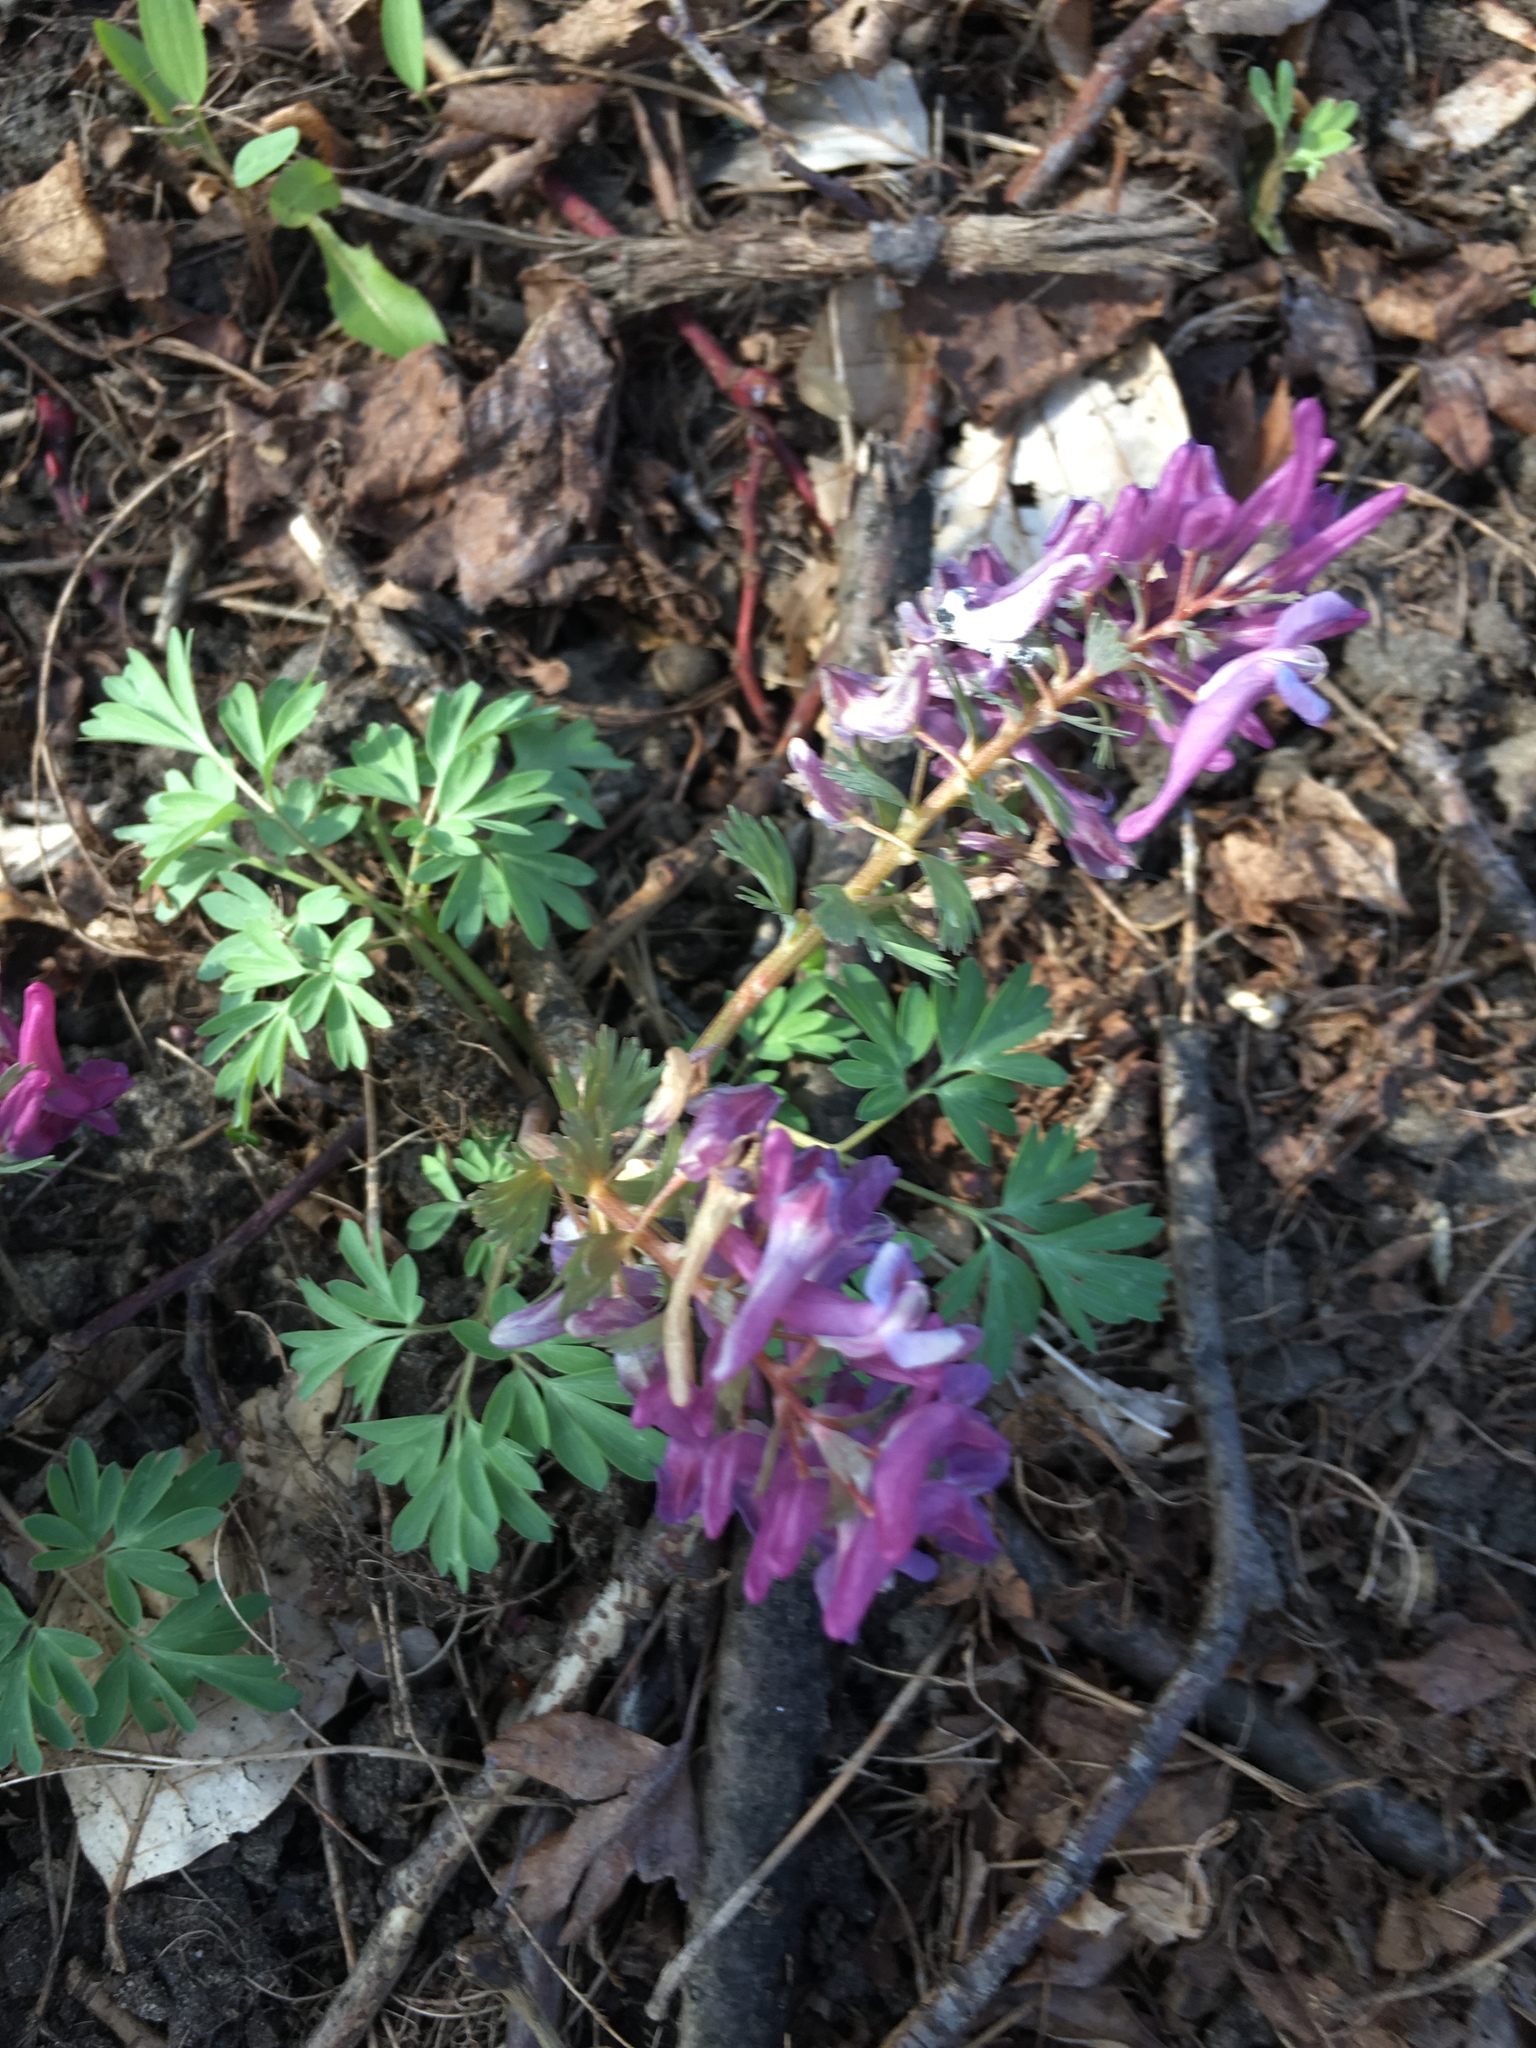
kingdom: Plantae
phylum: Tracheophyta
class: Magnoliopsida
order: Ranunculales
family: Papaveraceae
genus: Corydalis
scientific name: Corydalis solida
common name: Bird-in-a-bush
